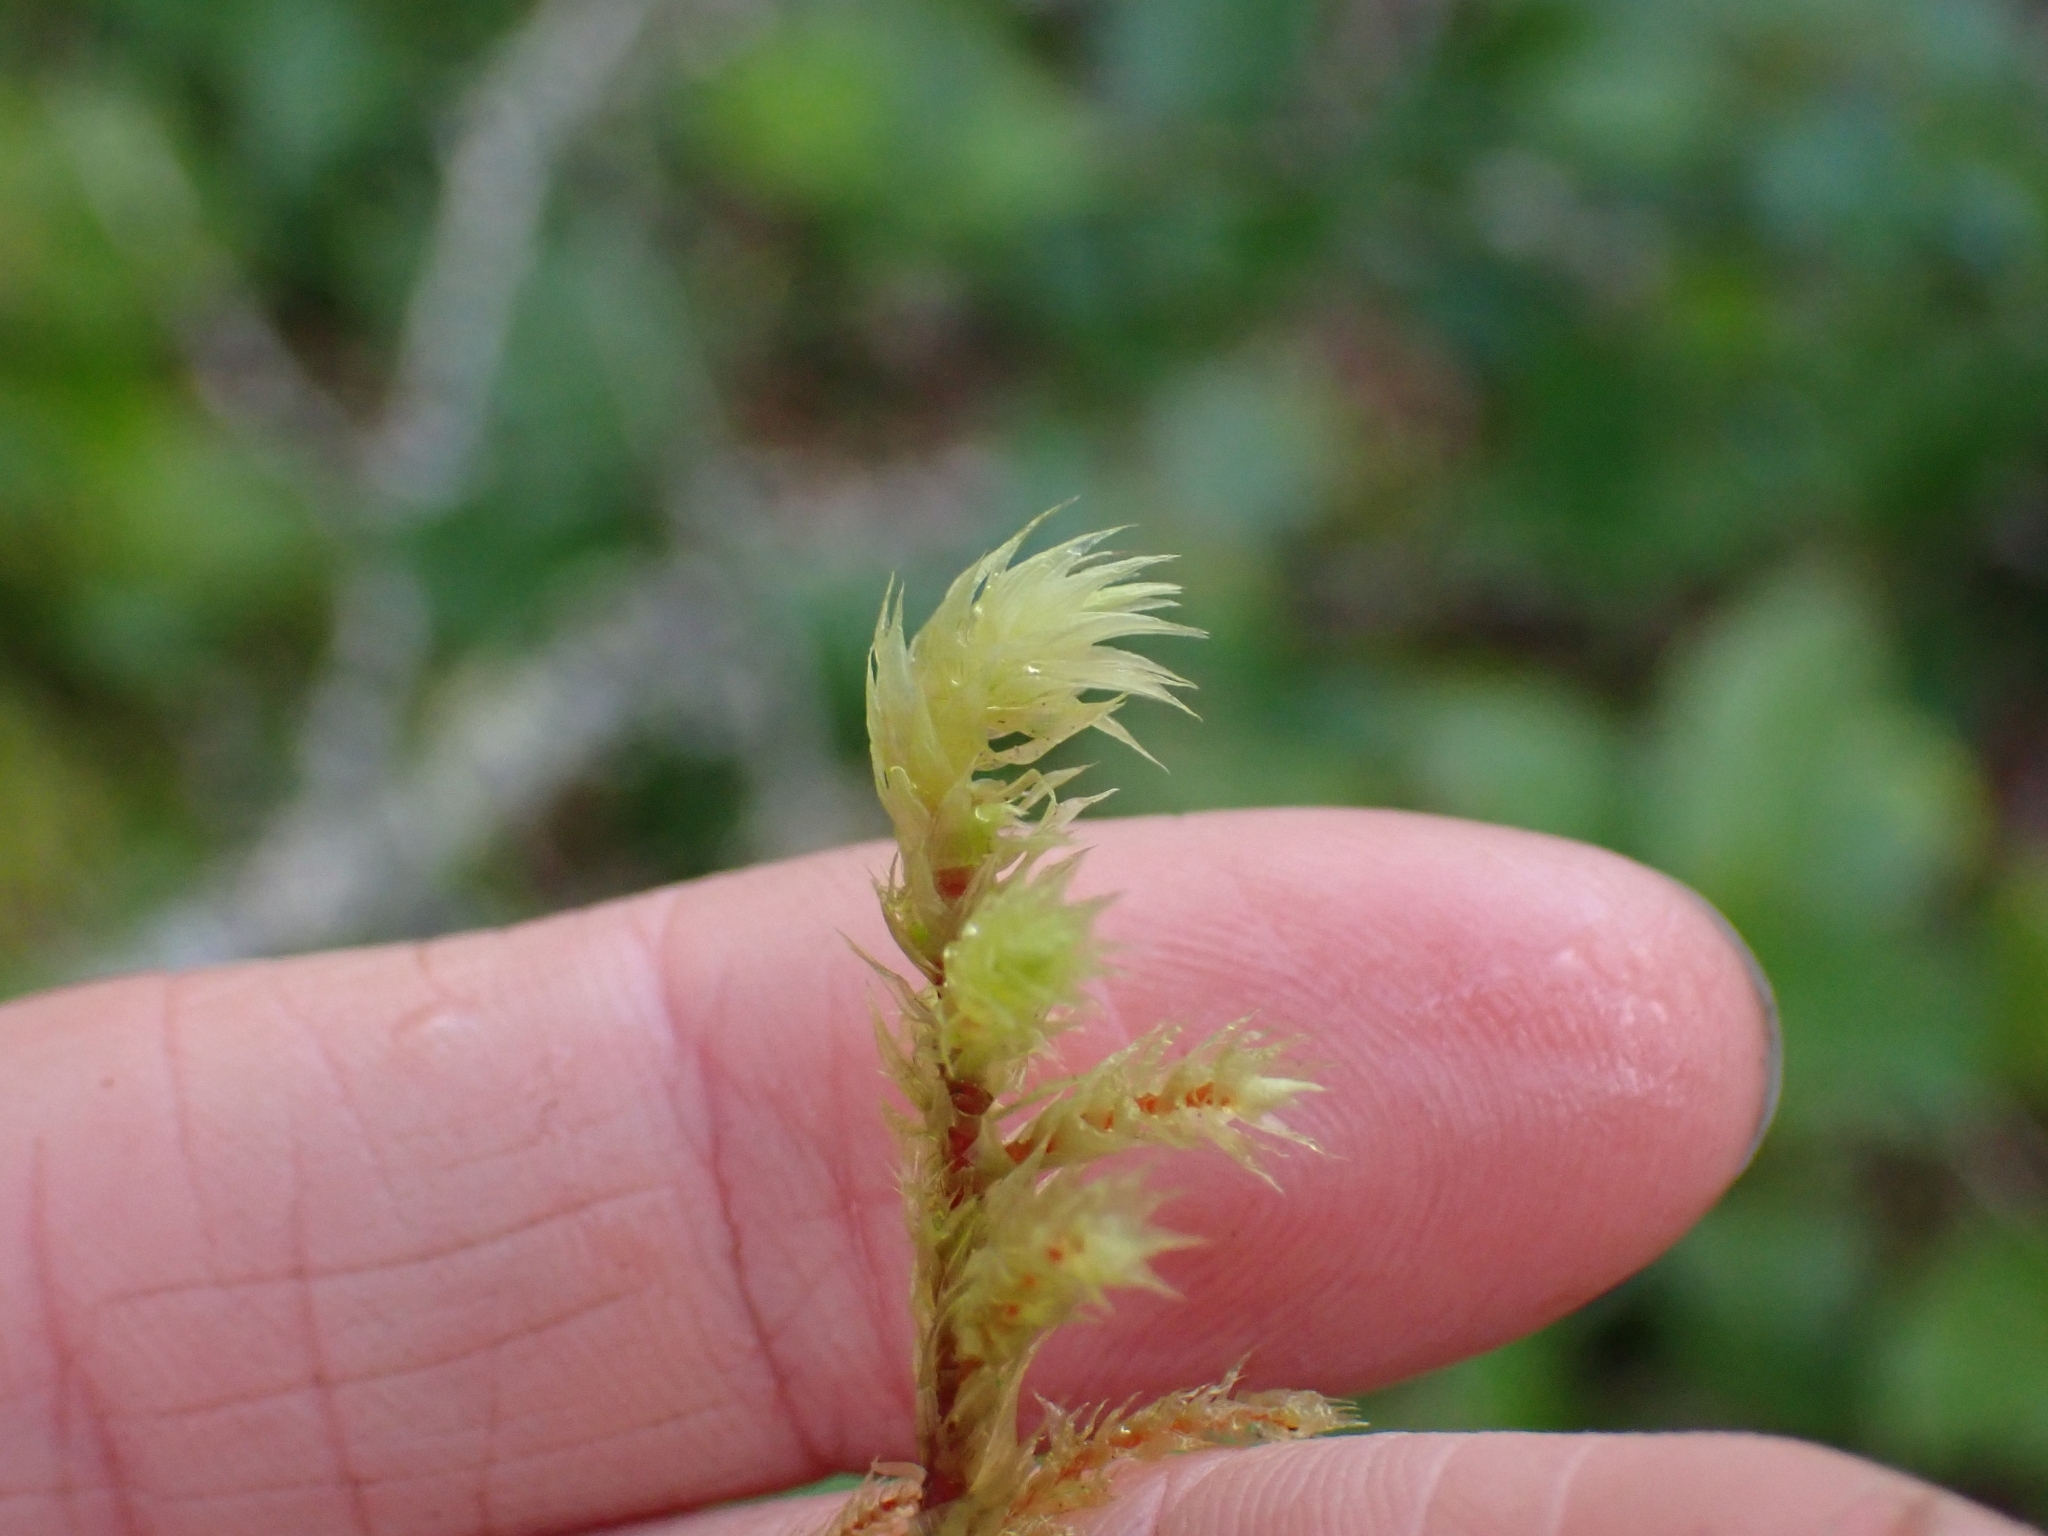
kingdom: Plantae
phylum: Bryophyta
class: Bryopsida
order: Hypnales
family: Hylocomiaceae
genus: Hylocomiadelphus
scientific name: Hylocomiadelphus triquetrus
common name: Rough goose neck moss
